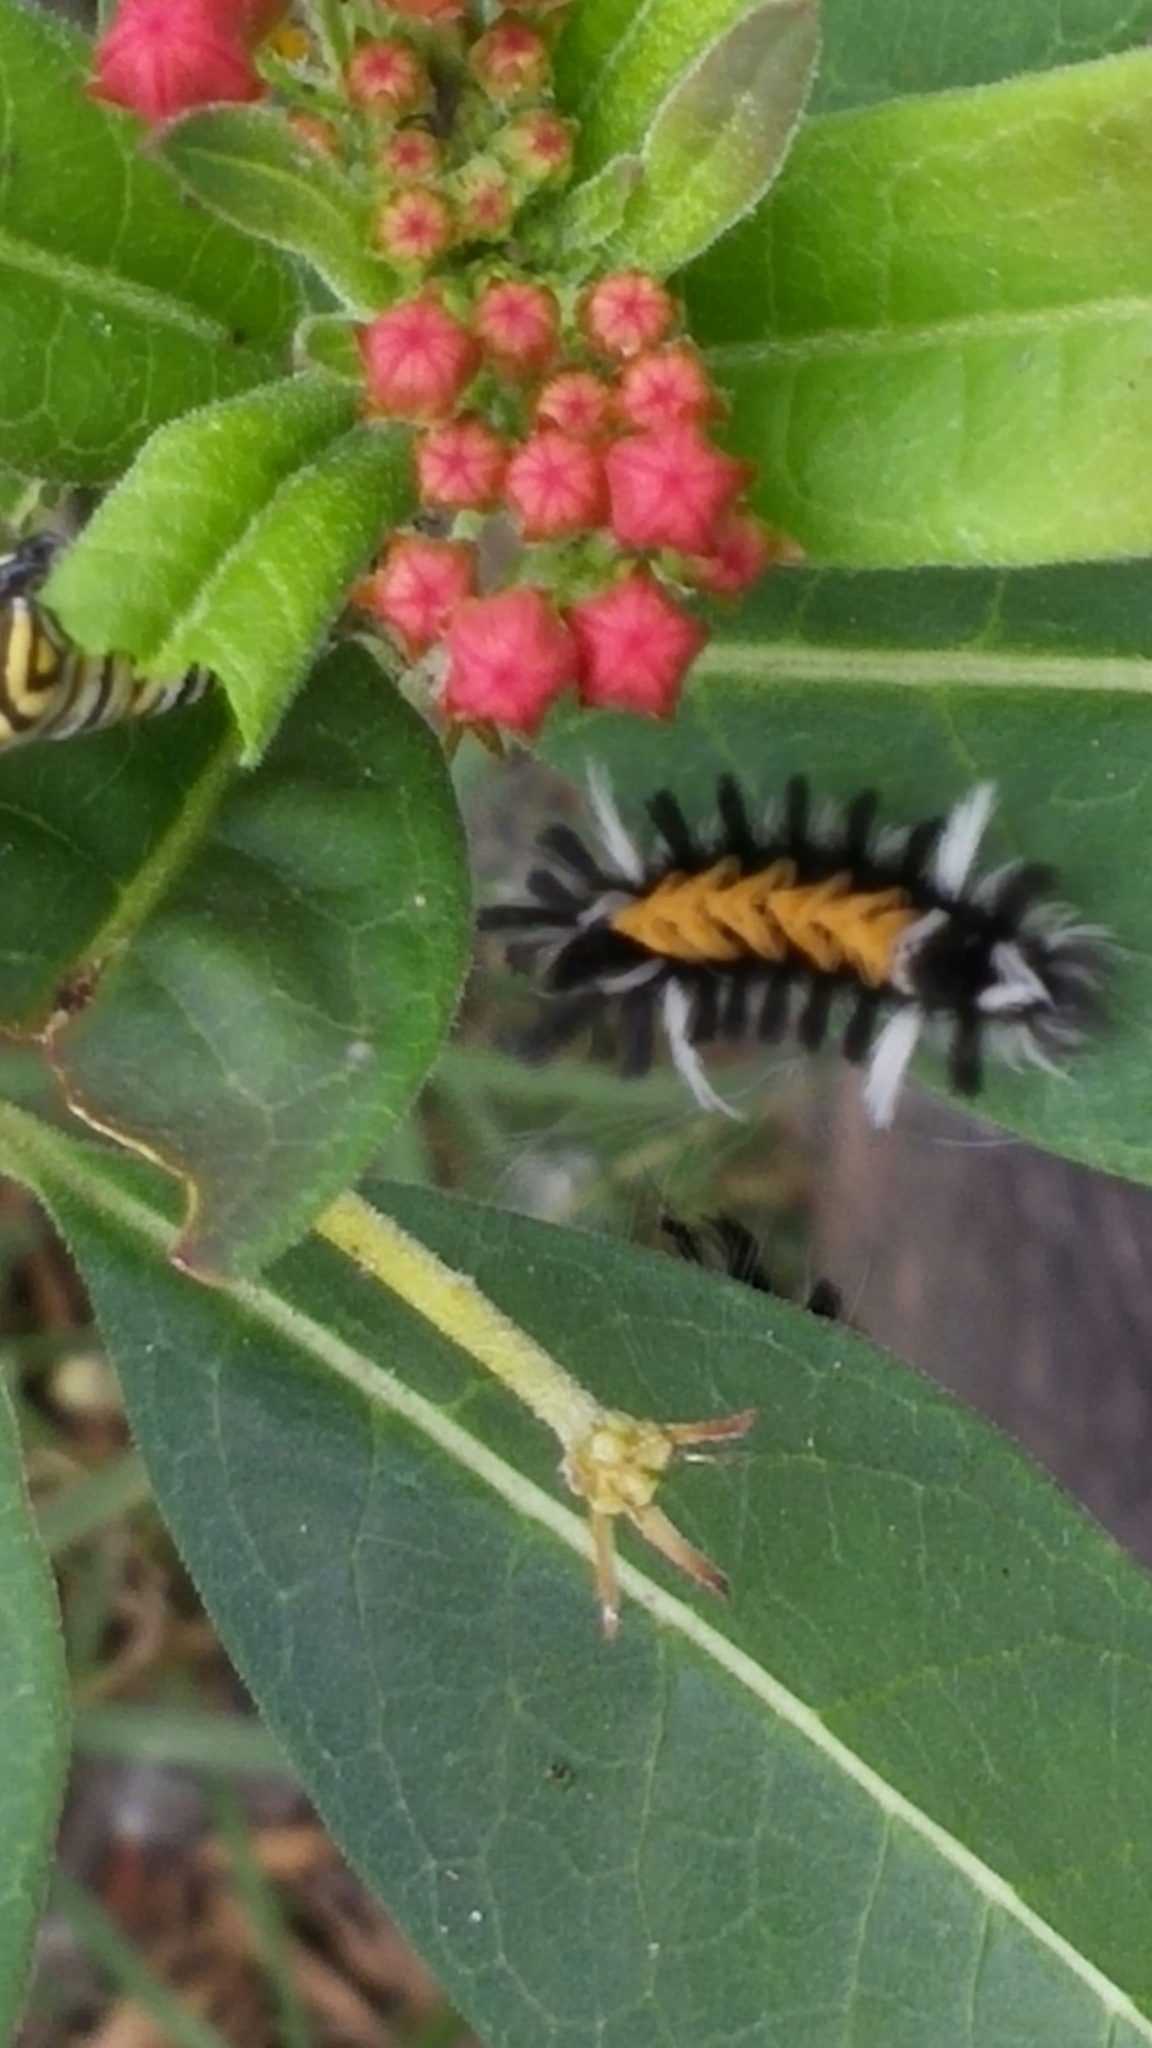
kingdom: Animalia
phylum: Arthropoda
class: Insecta
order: Lepidoptera
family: Erebidae
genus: Euchaetes
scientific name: Euchaetes egle
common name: Milkweed tussock moth
